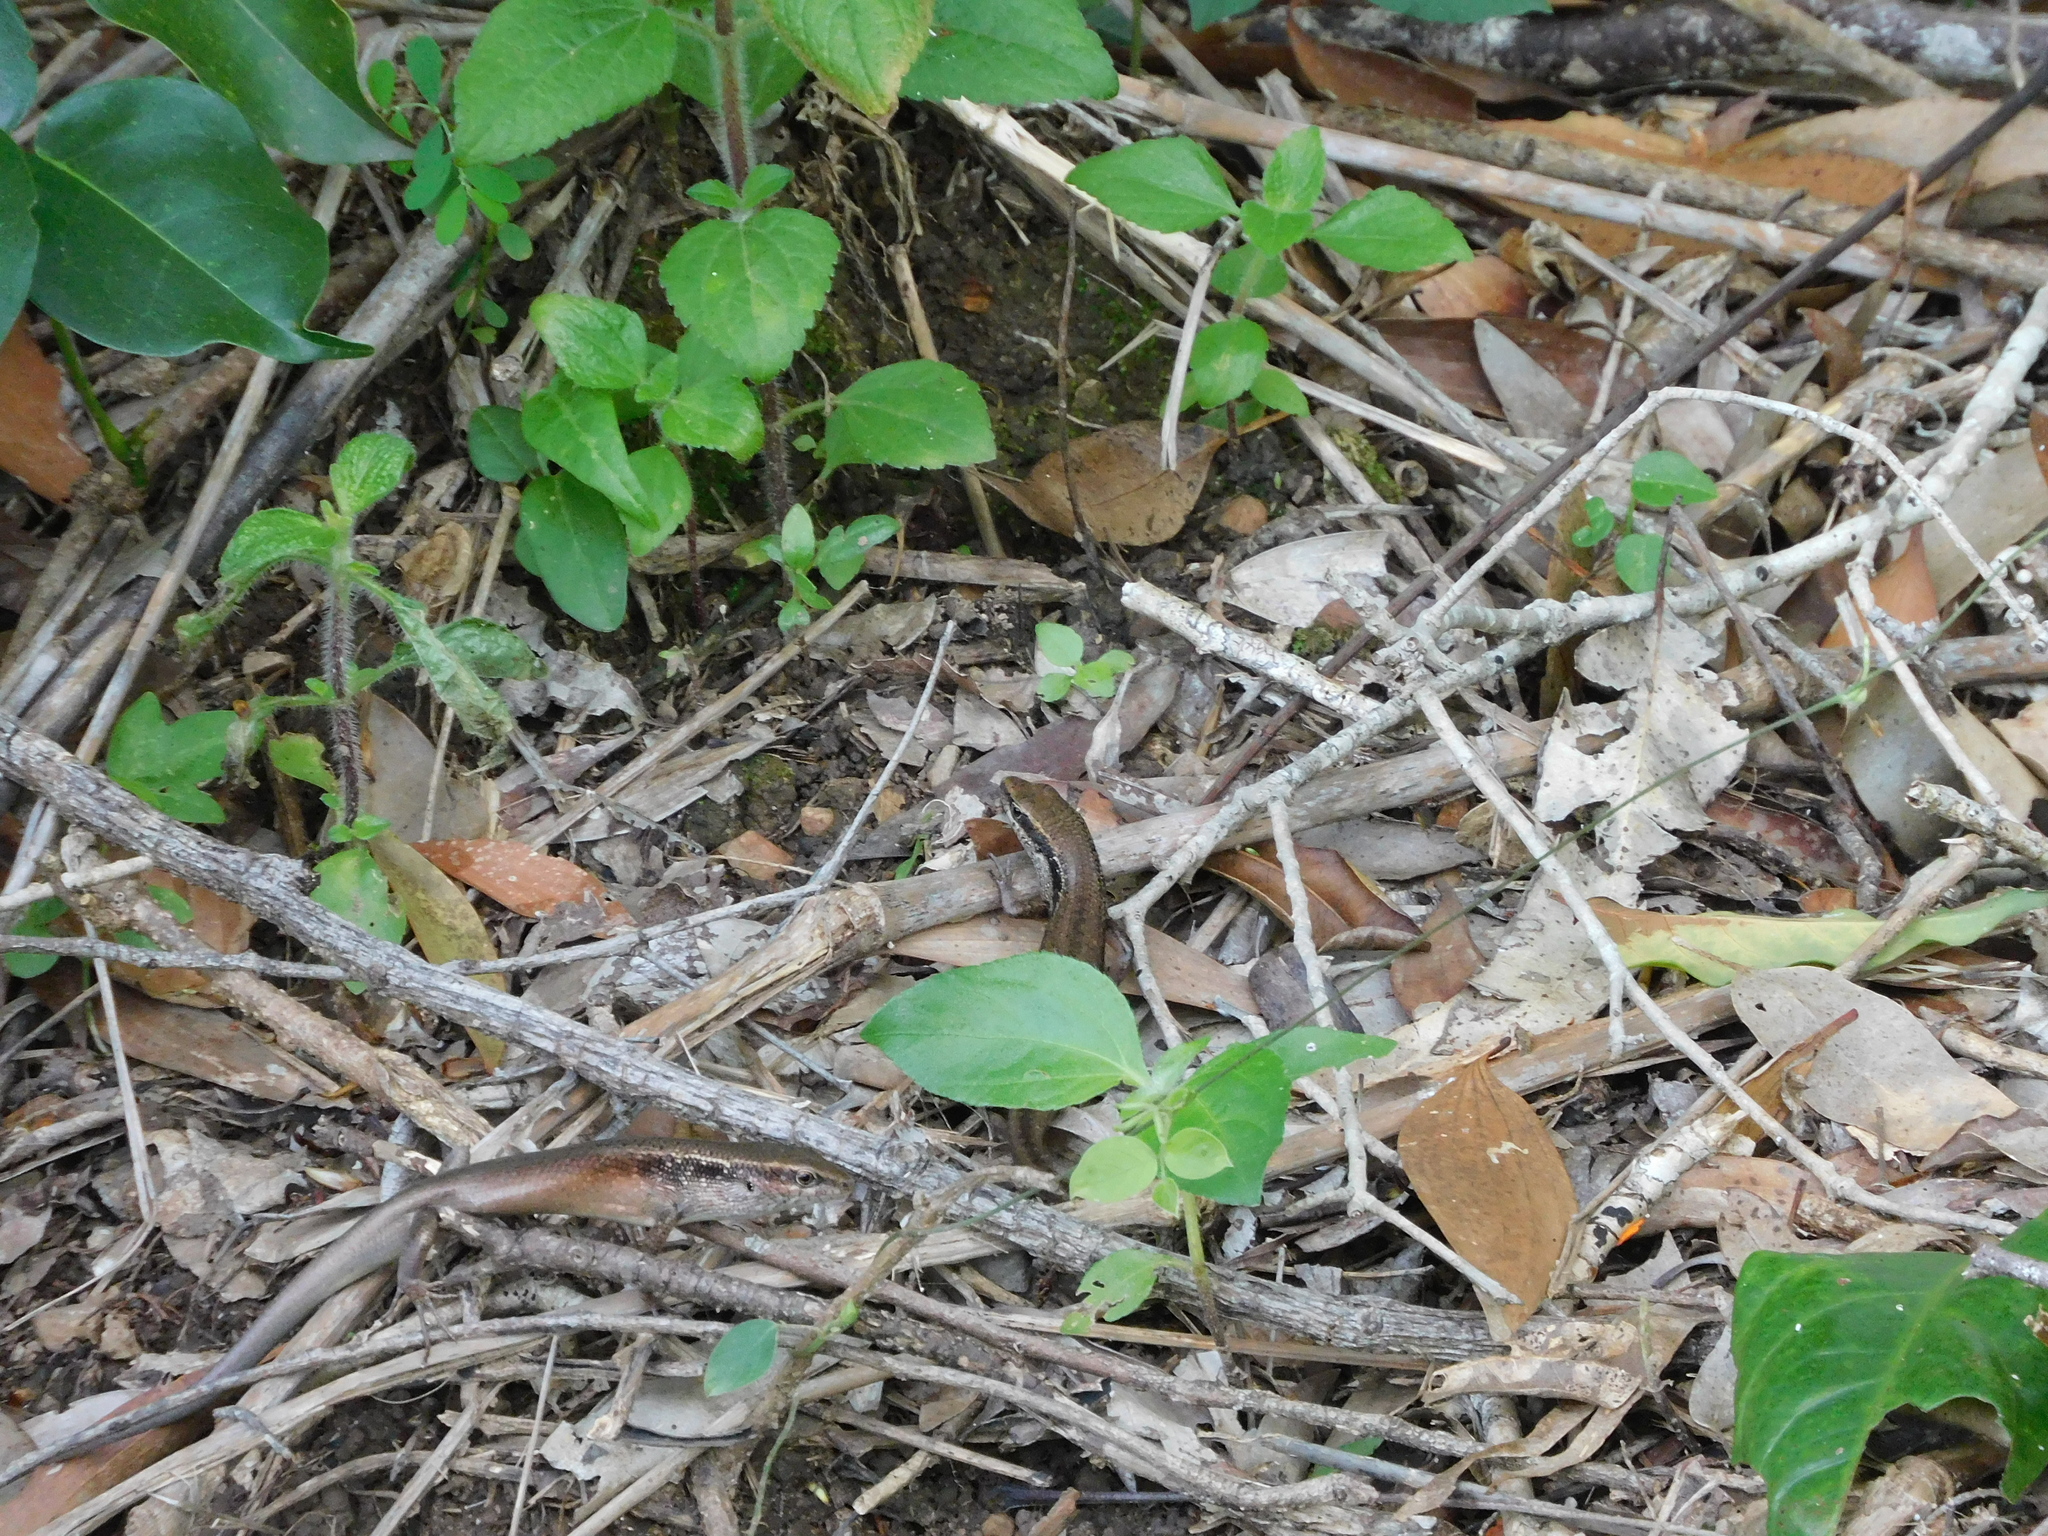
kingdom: Animalia
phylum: Chordata
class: Squamata
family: Scincidae
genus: Carlia
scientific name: Carlia longipes
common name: Closed-litter rainbow-skink
